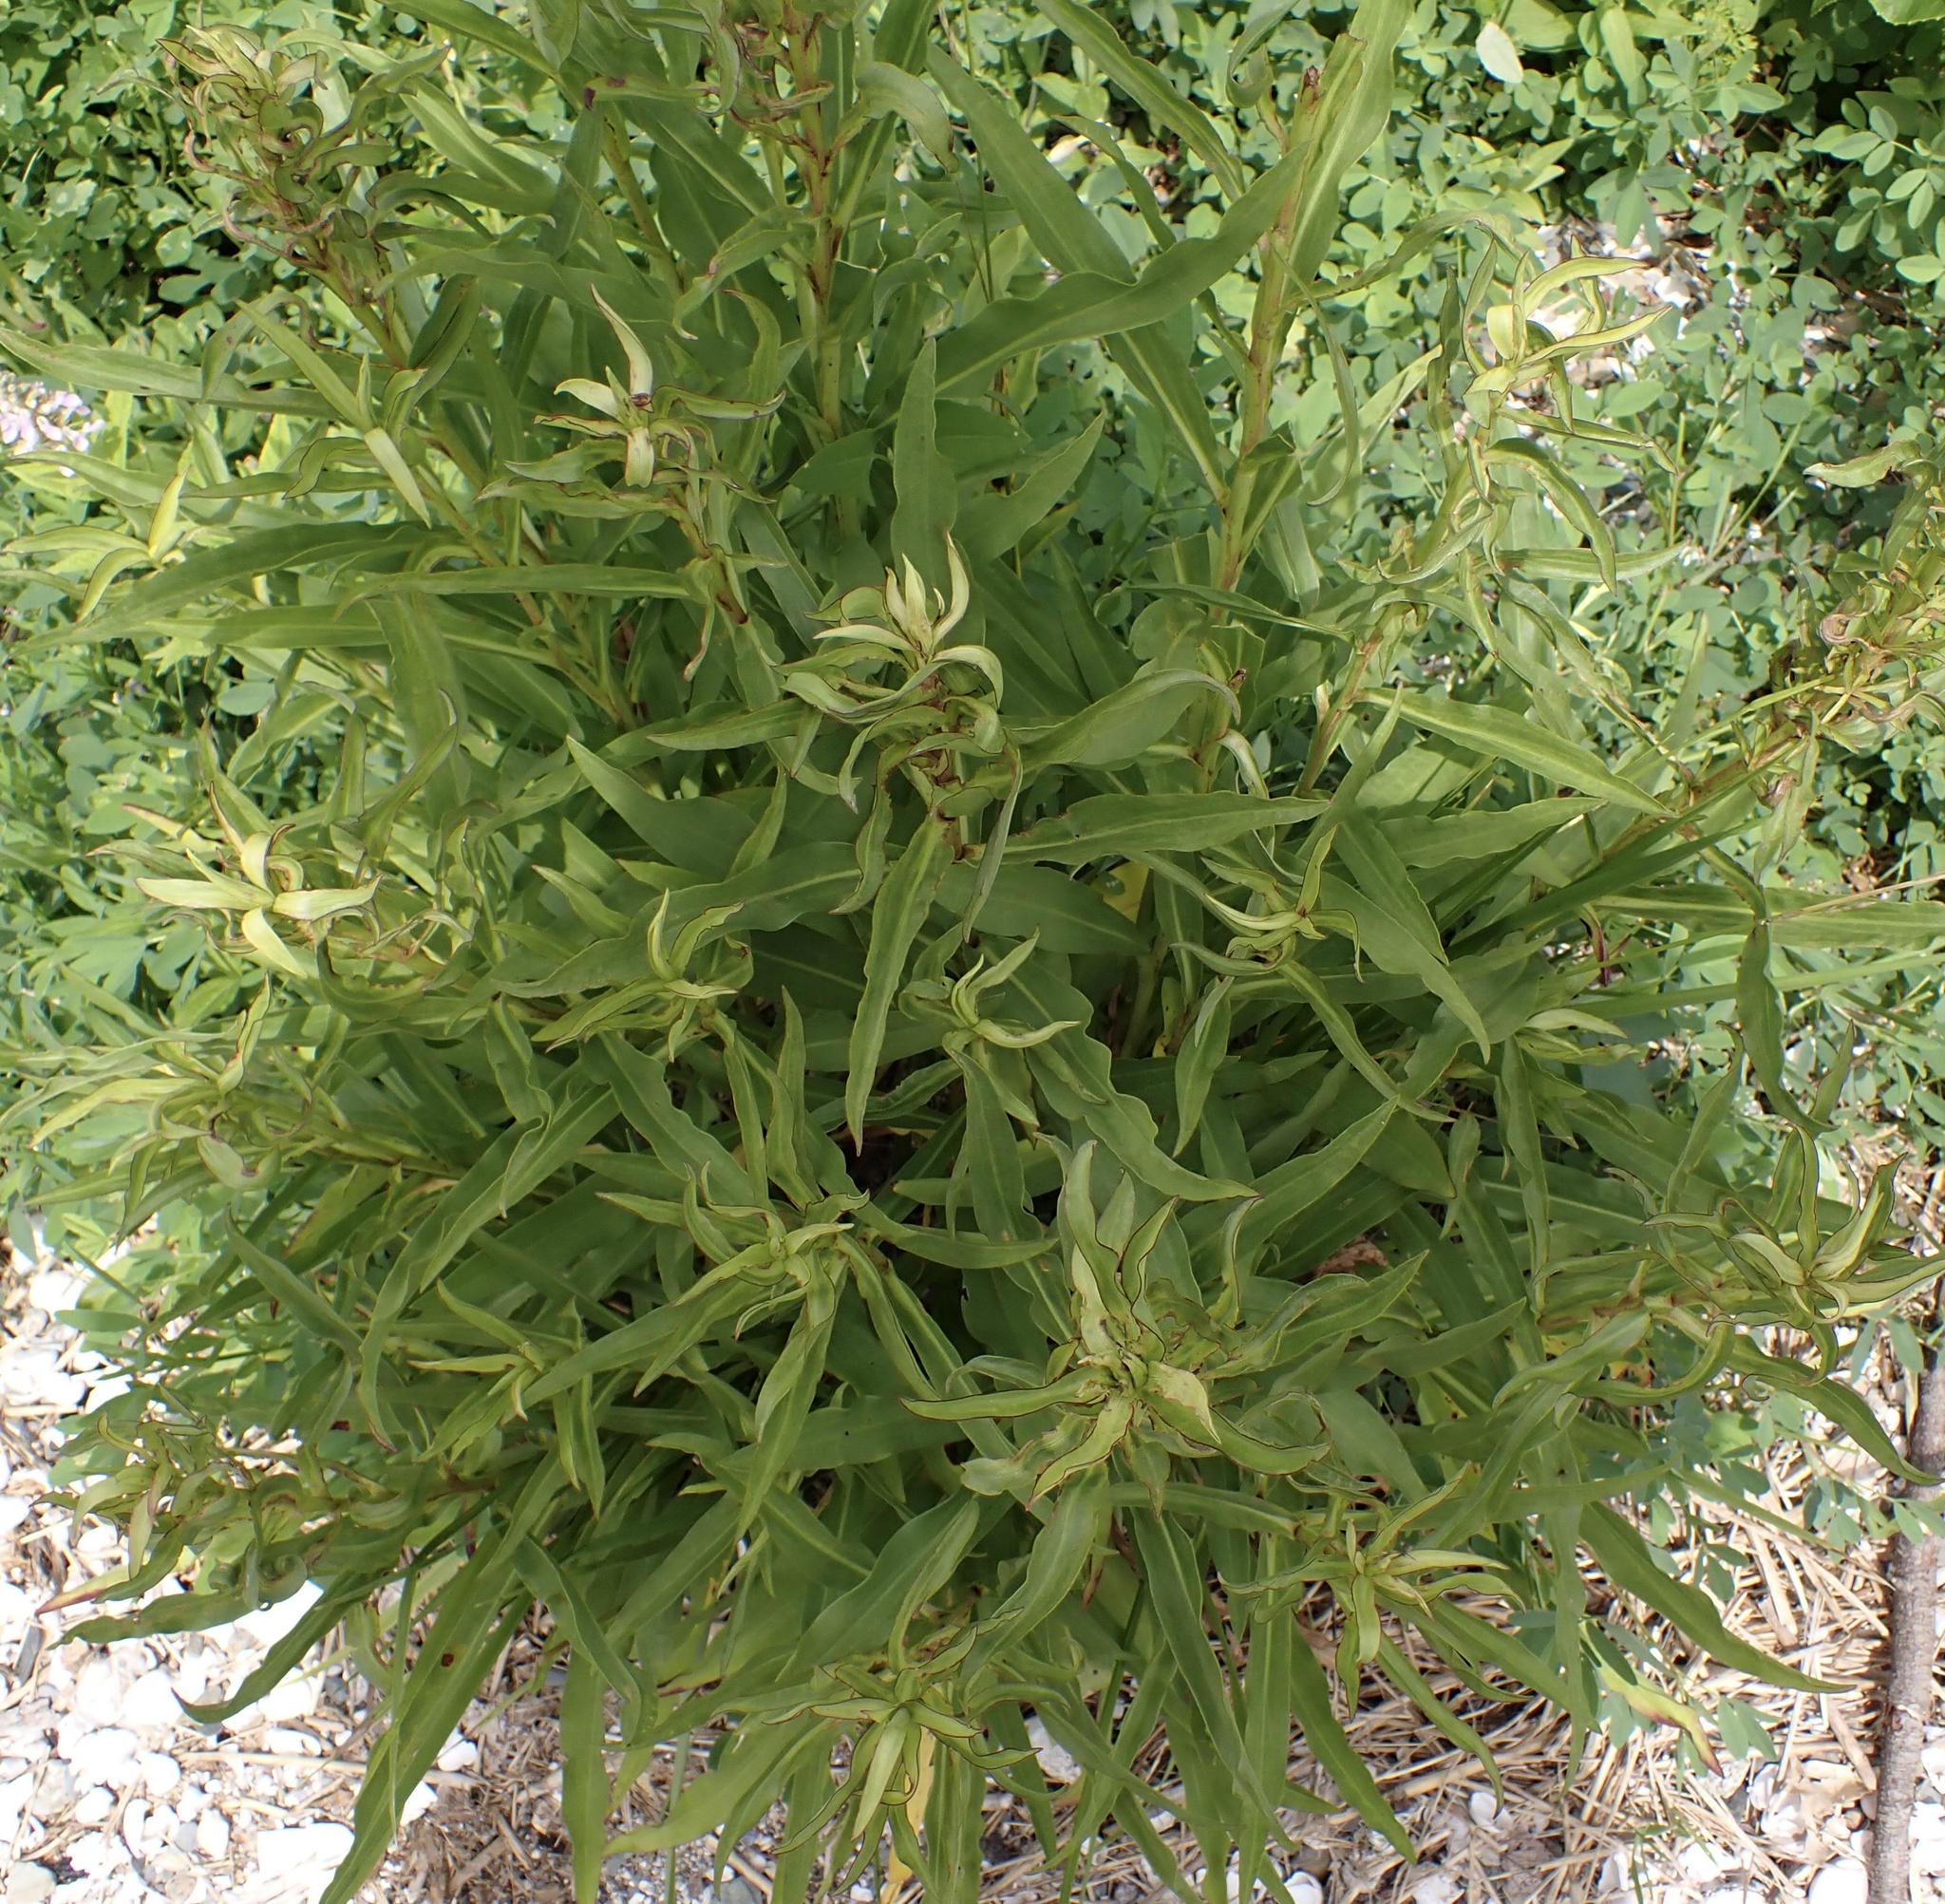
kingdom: Plantae
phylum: Tracheophyta
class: Magnoliopsida
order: Asterales
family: Asteraceae
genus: Solidago
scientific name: Solidago sempervirens
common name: Salt-marsh goldenrod
